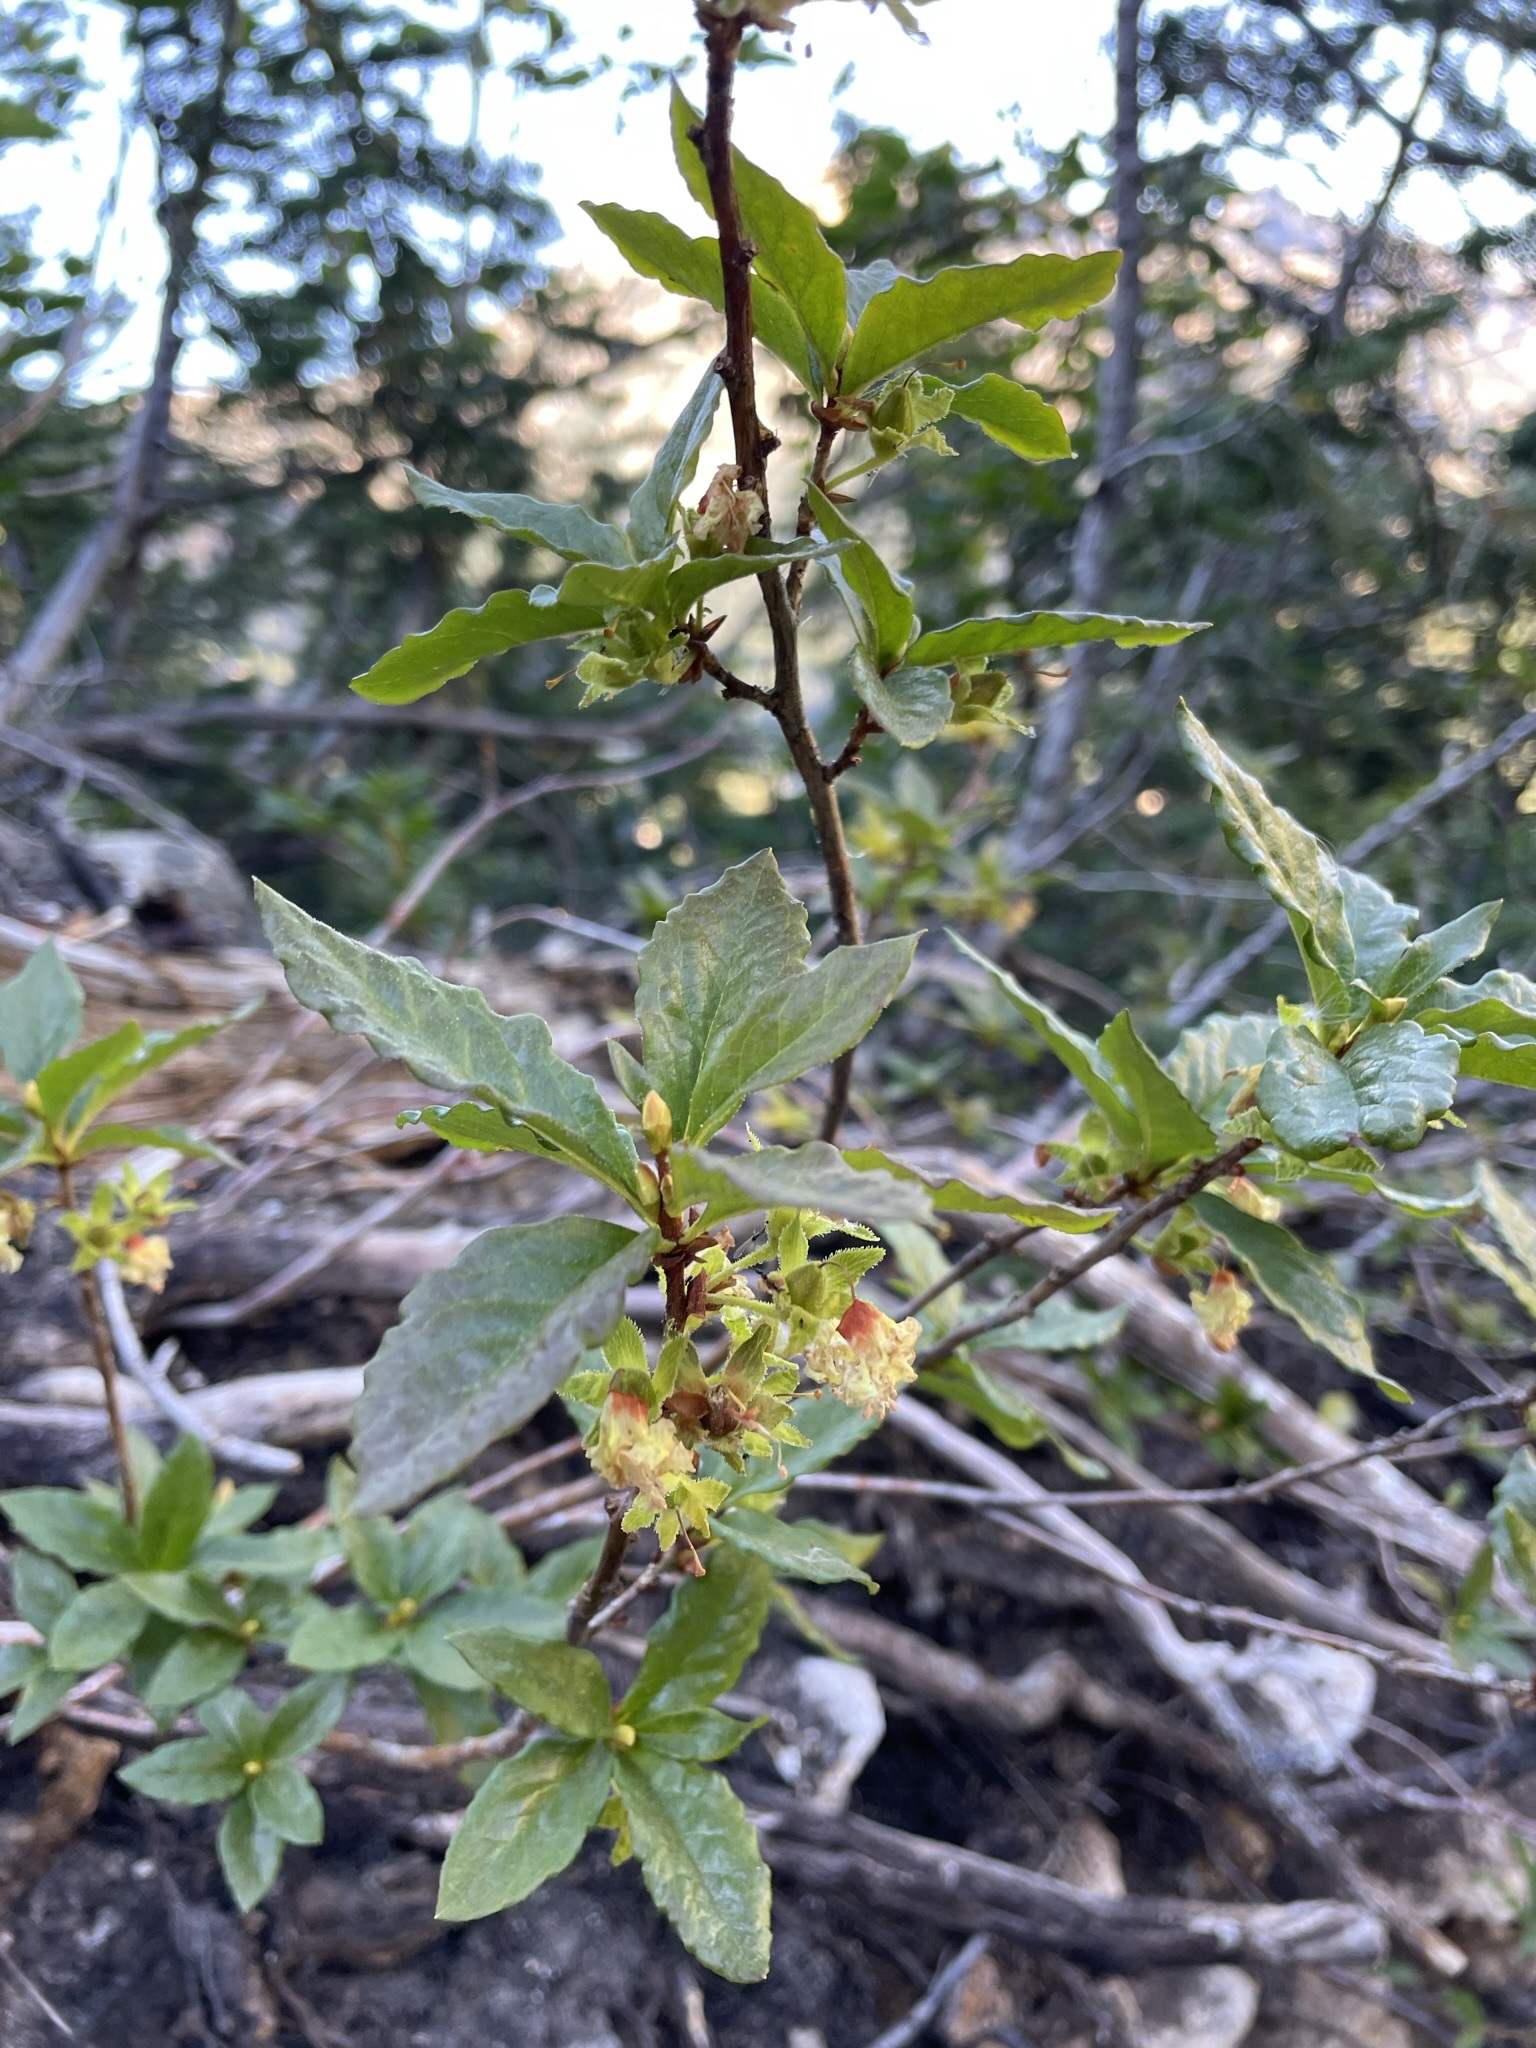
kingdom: Plantae
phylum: Tracheophyta
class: Magnoliopsida
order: Ericales
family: Ericaceae
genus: Rhododendron
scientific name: Rhododendron albiflorum
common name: White rhododendron
